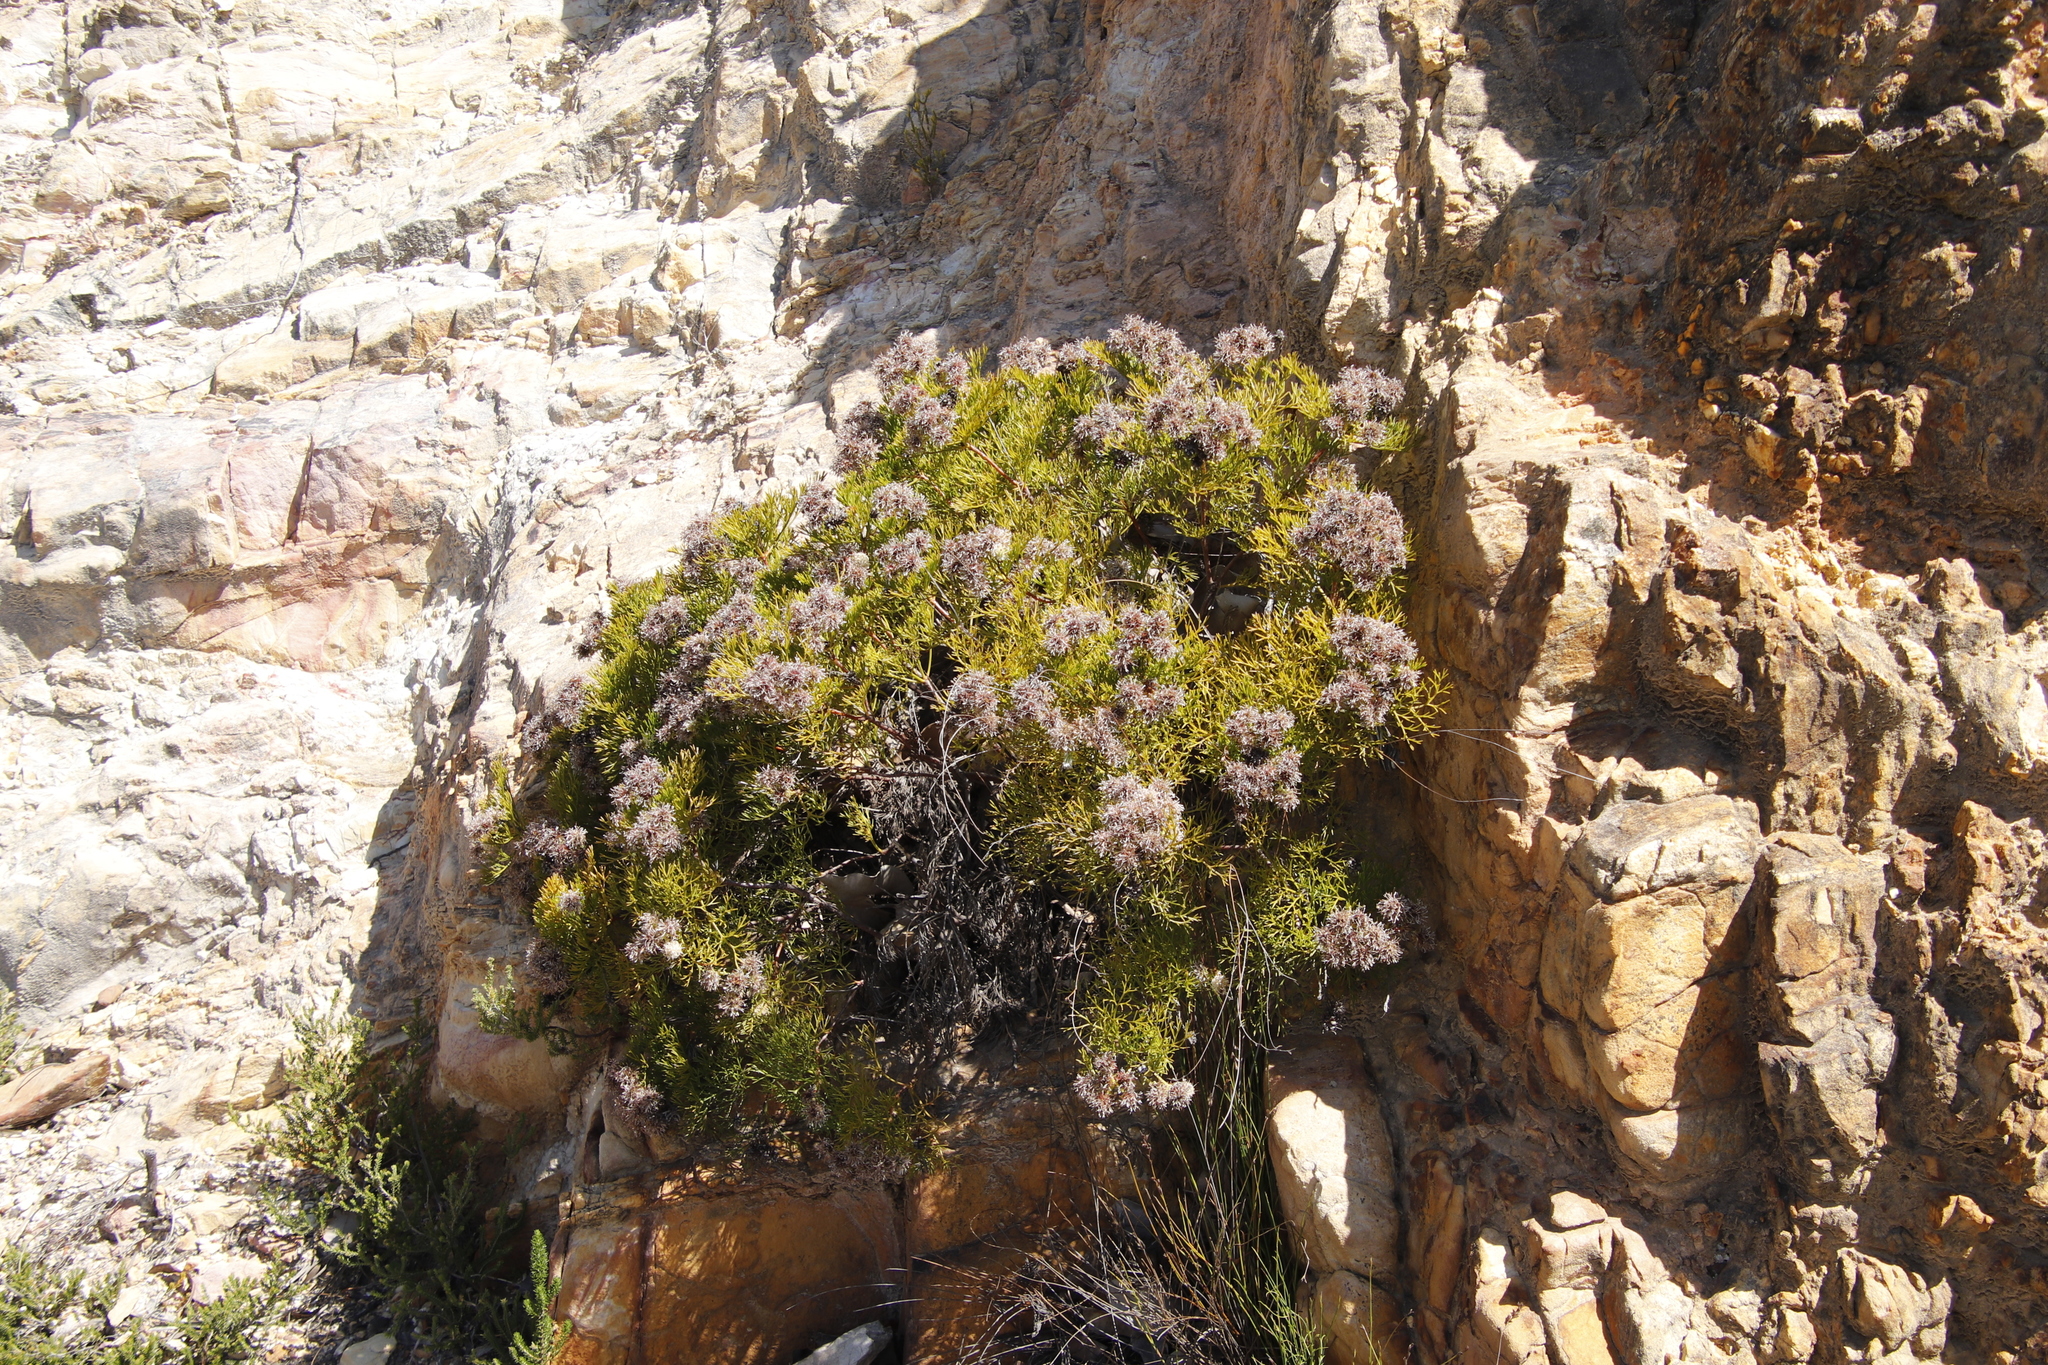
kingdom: Plantae
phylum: Tracheophyta
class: Magnoliopsida
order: Proteales
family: Proteaceae
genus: Serruria
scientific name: Serruria elongata
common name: Long-stalk spiderhead
